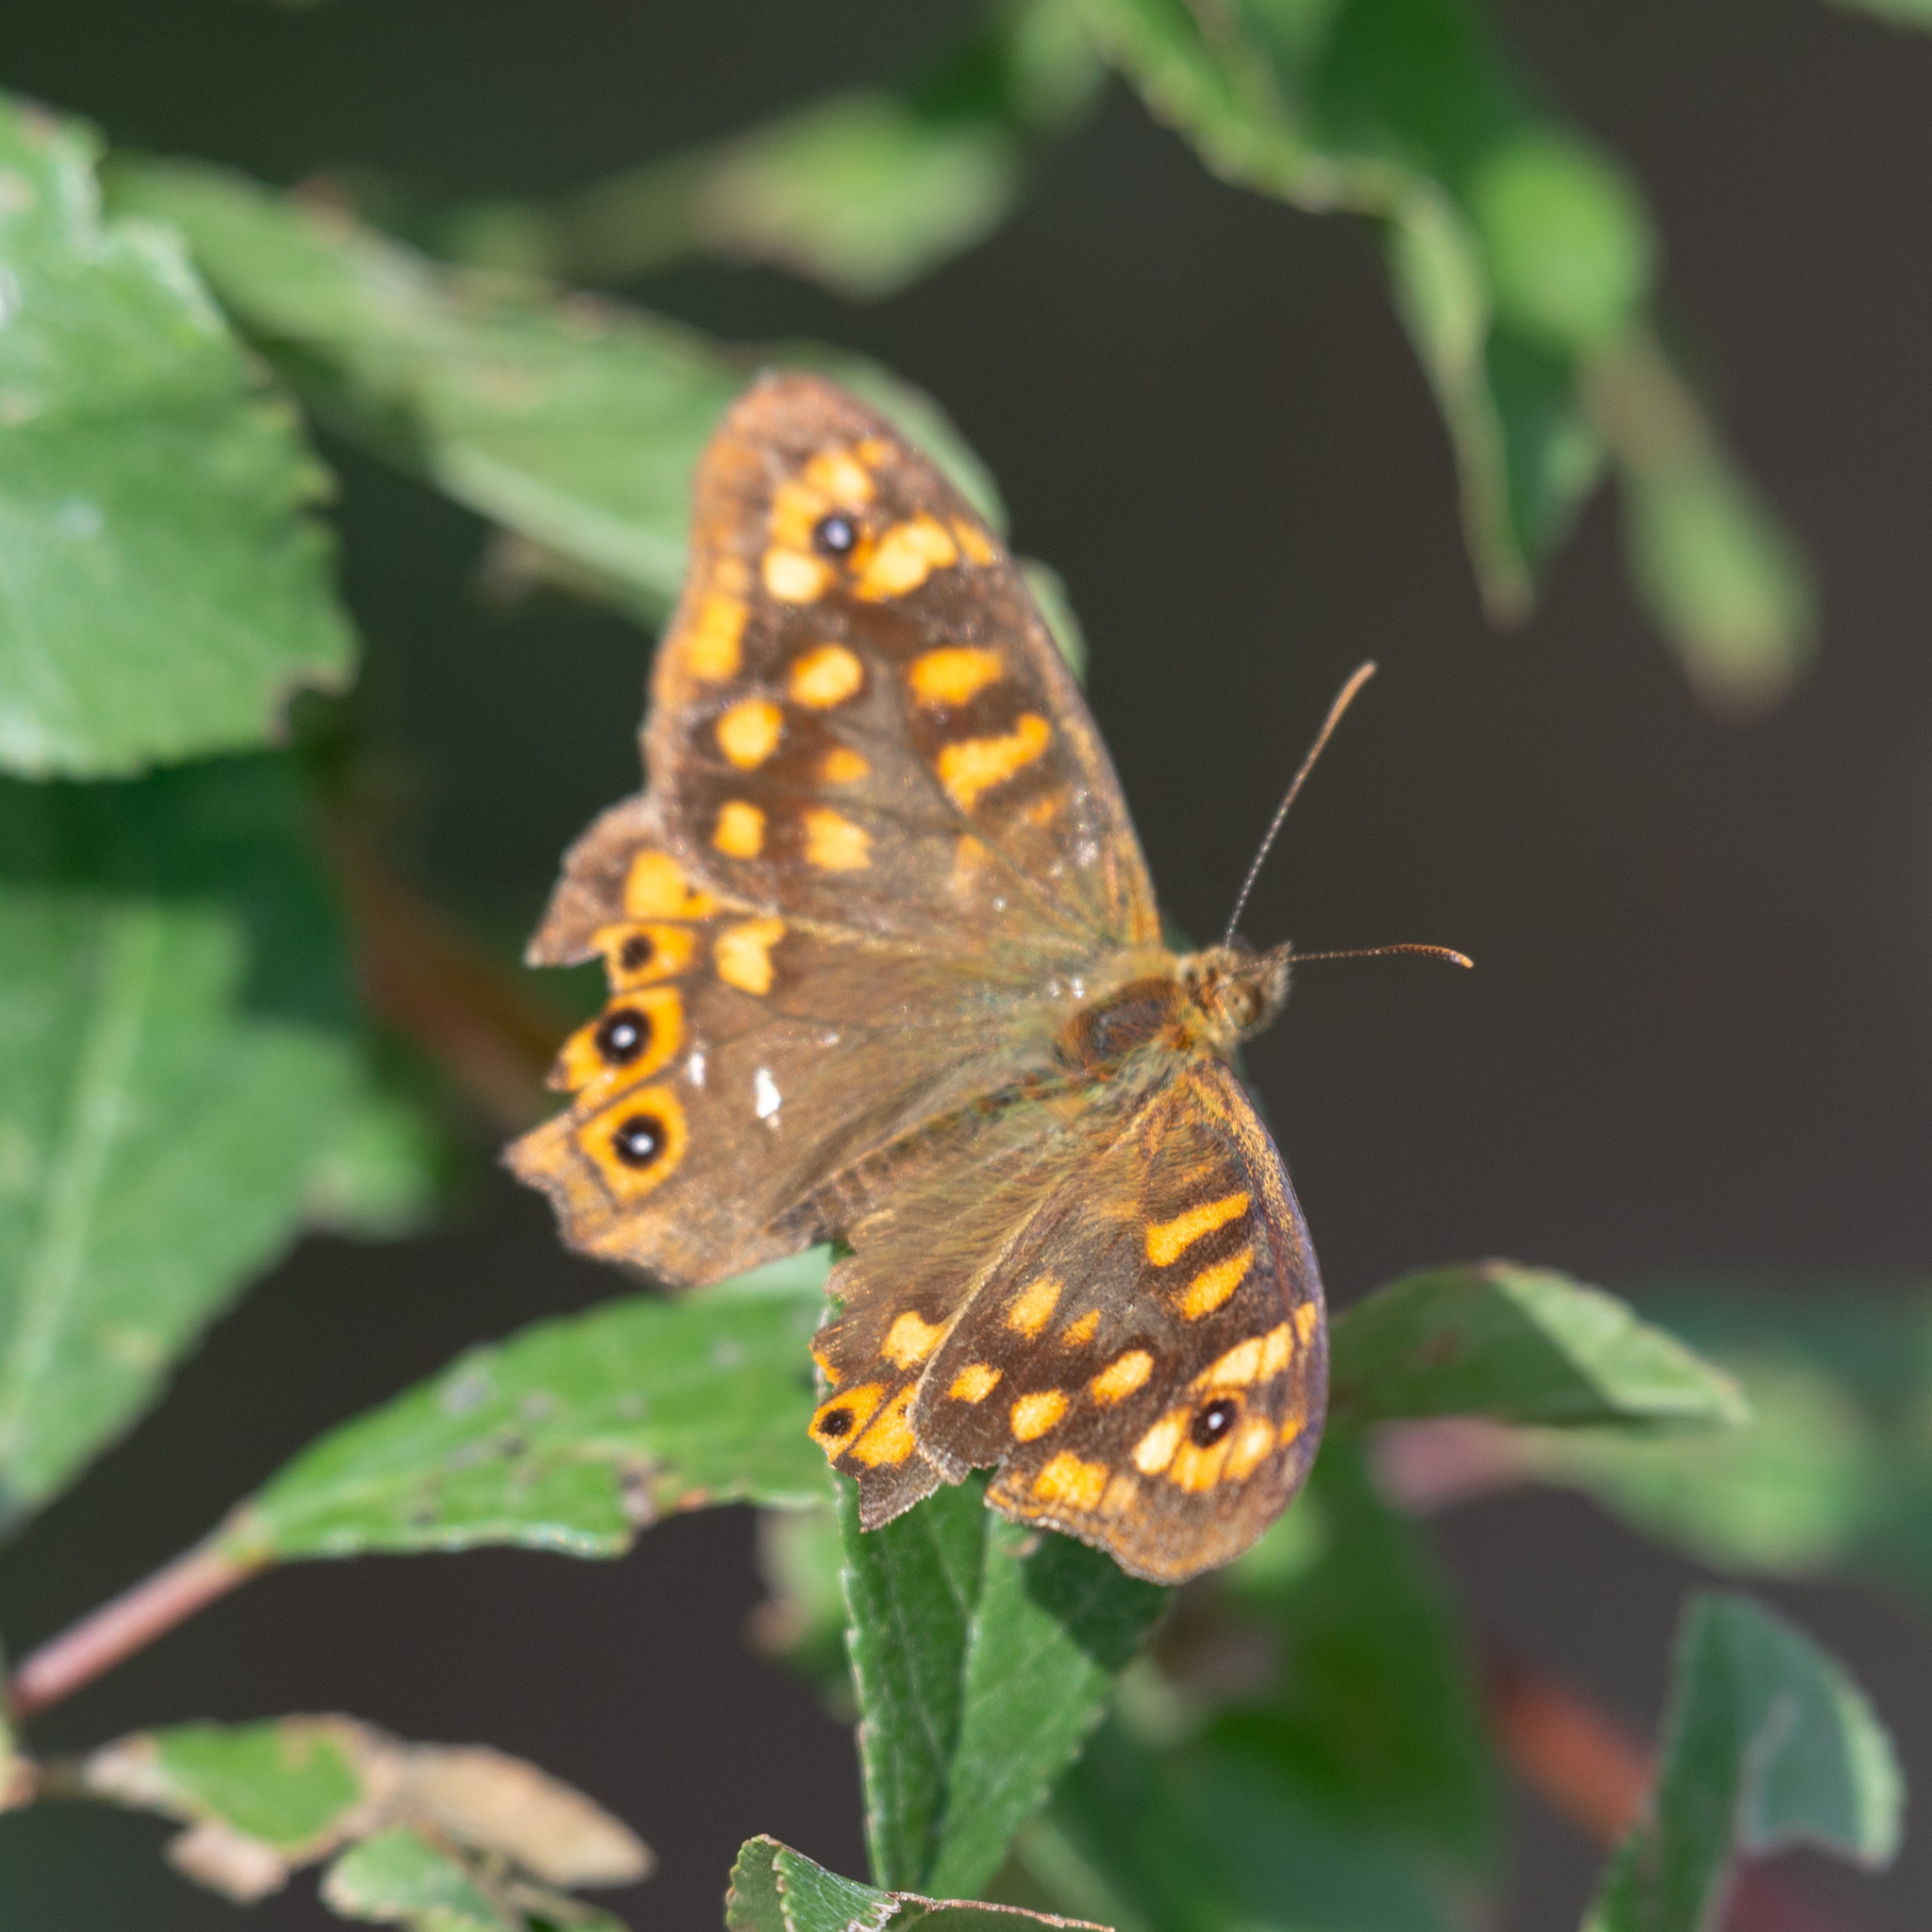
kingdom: Animalia
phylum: Arthropoda
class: Insecta
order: Lepidoptera
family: Nymphalidae
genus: Pararge
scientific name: Pararge aegeria
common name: Speckled wood
